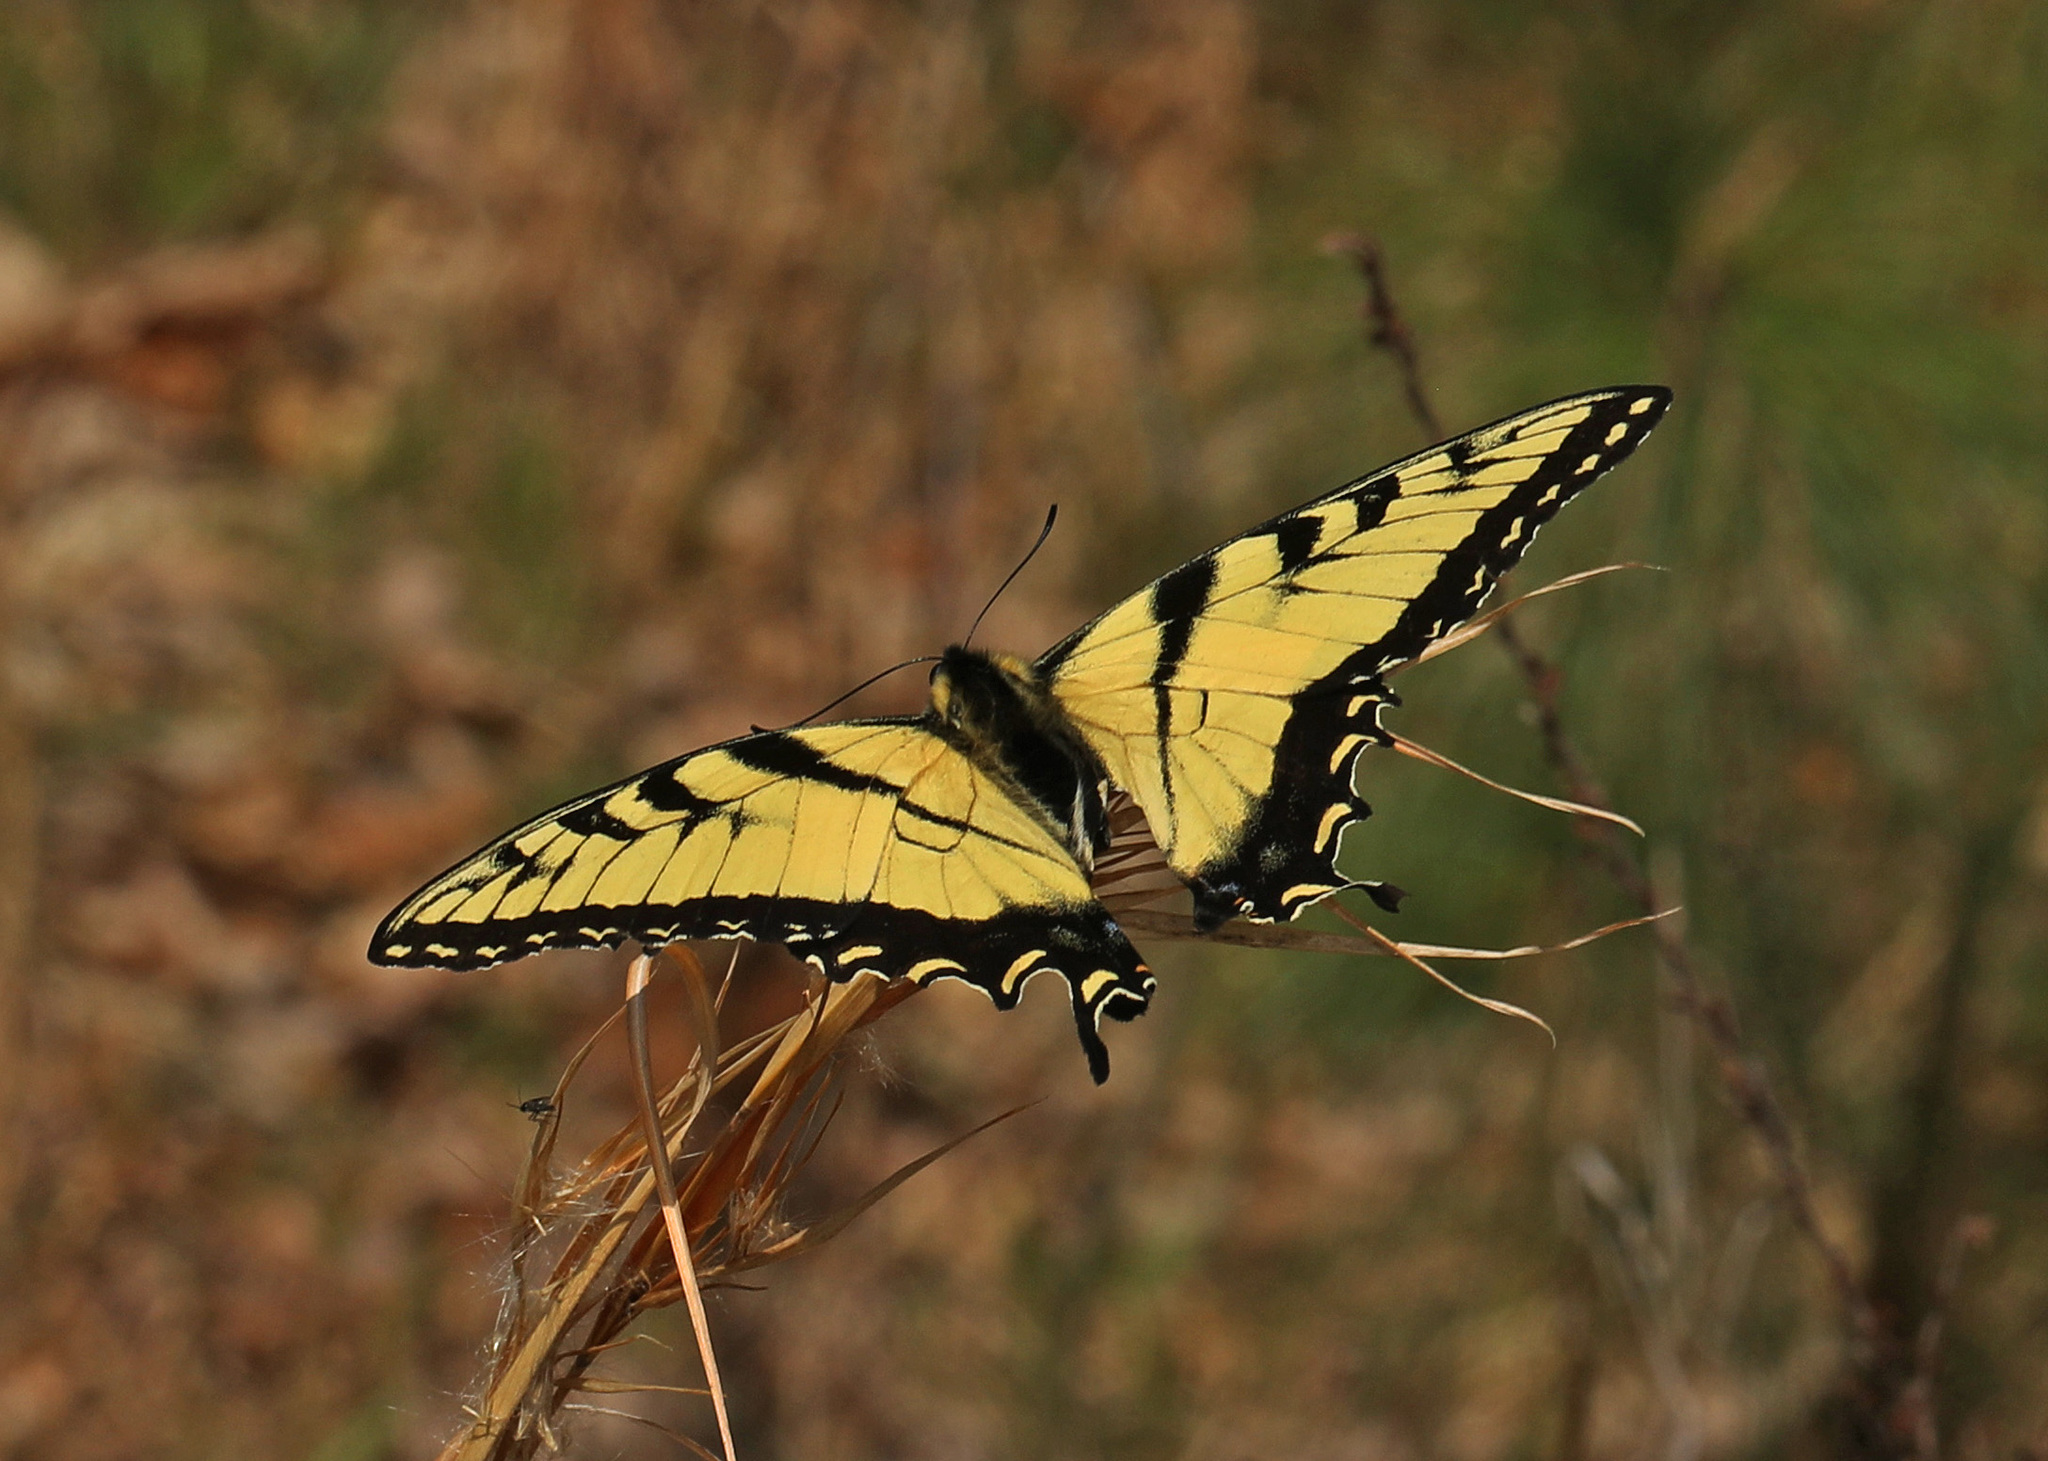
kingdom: Animalia
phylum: Arthropoda
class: Insecta
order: Lepidoptera
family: Papilionidae
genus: Papilio
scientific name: Papilio glaucus
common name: Tiger swallowtail
